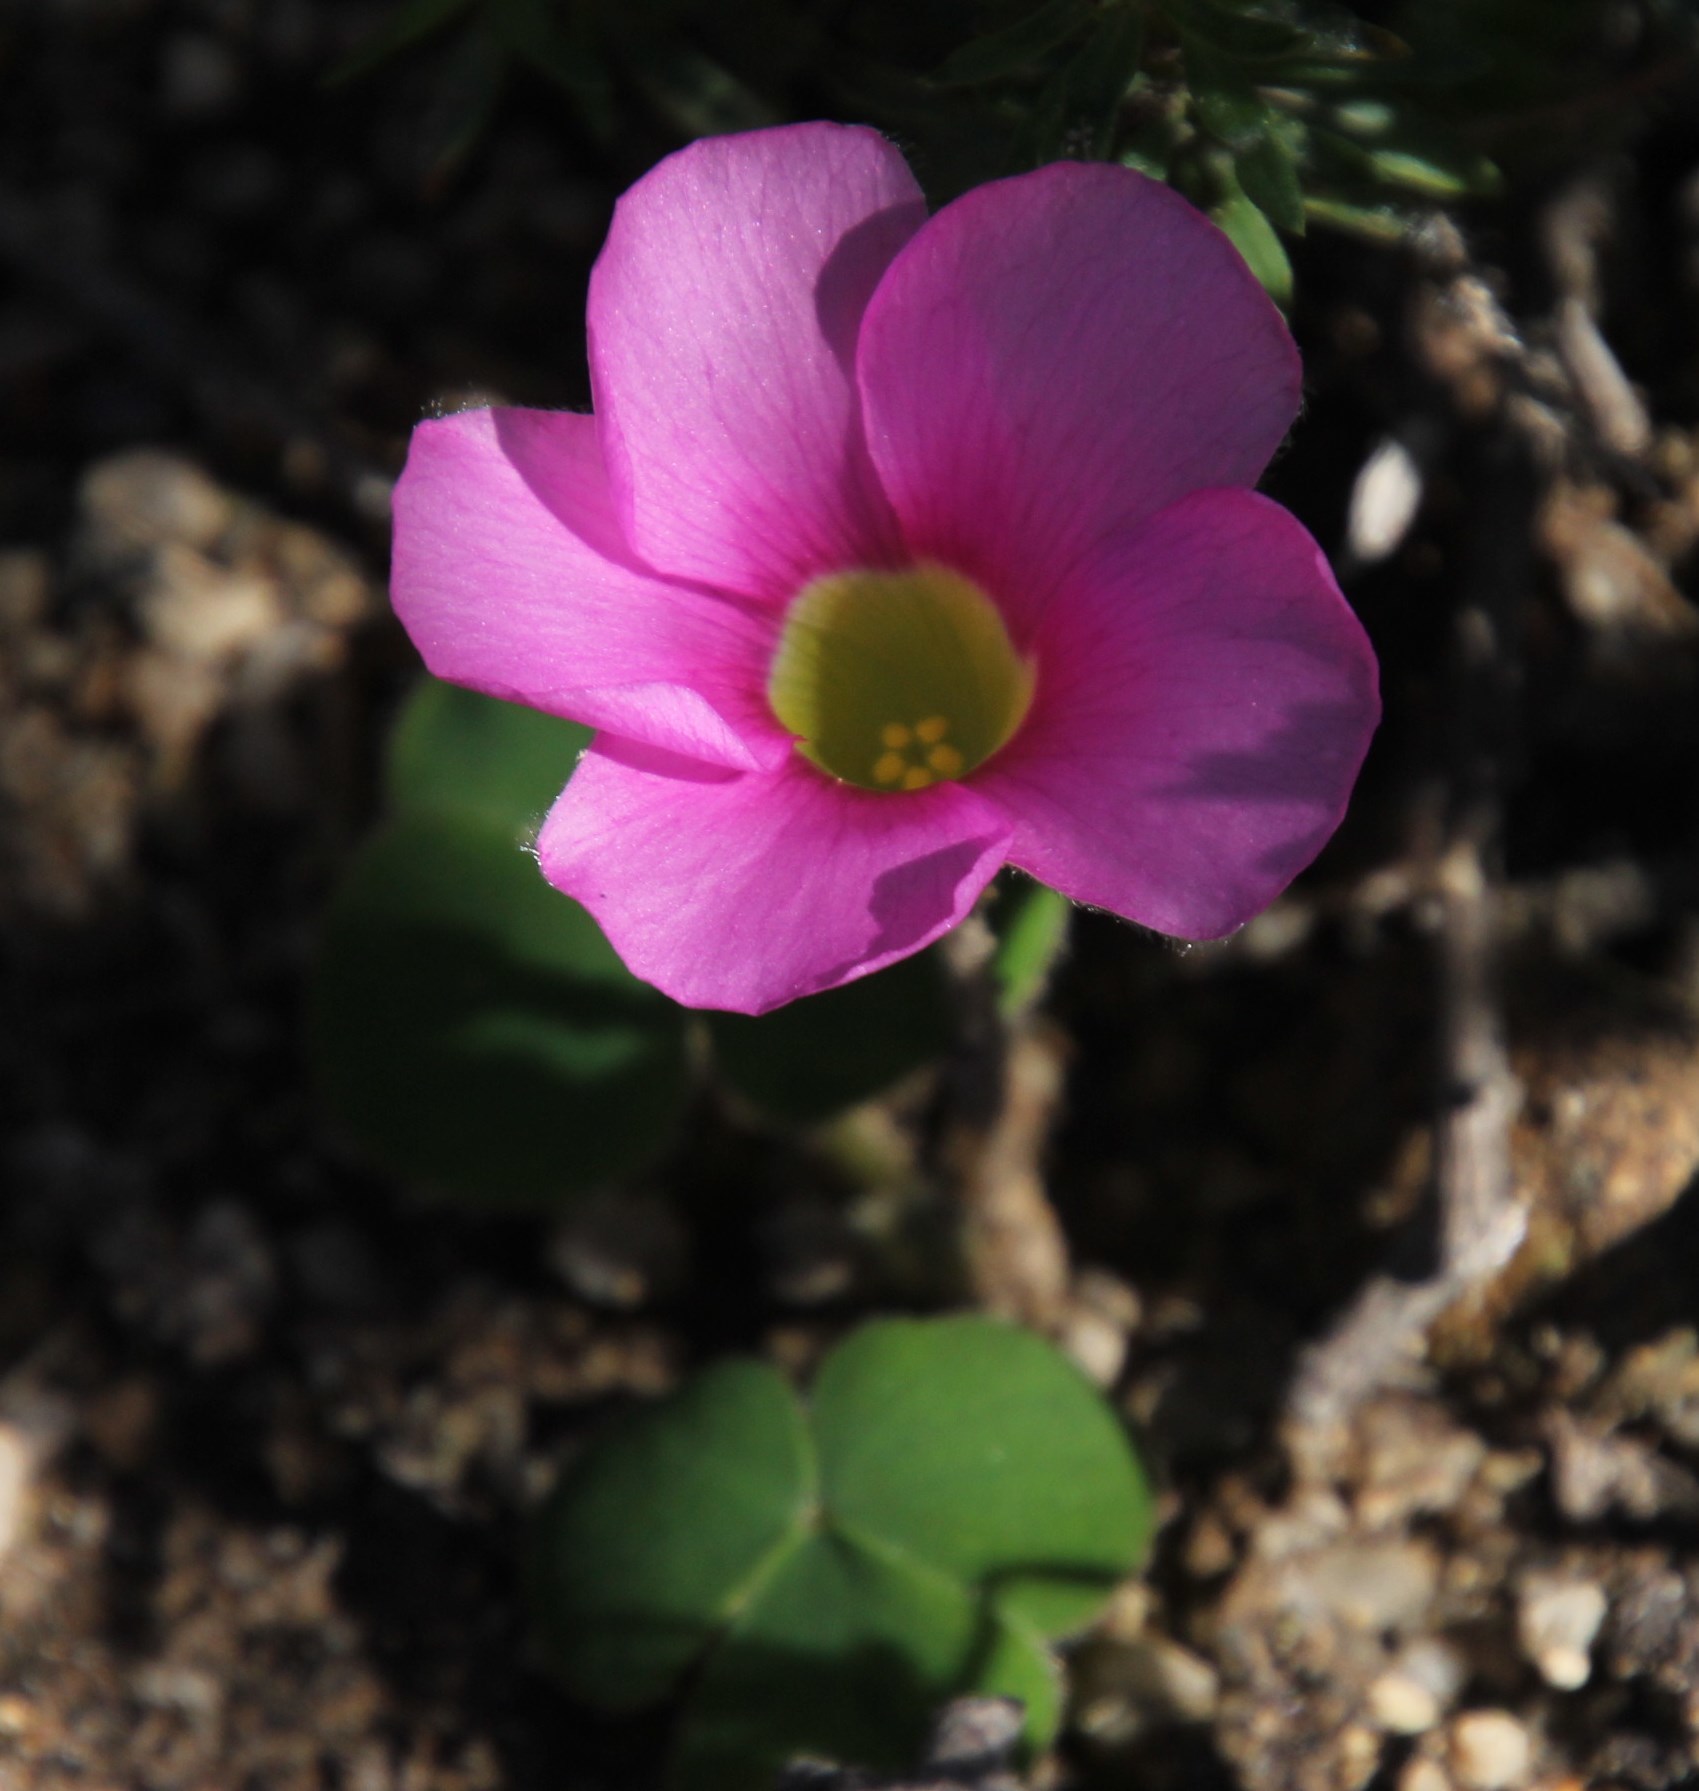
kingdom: Plantae
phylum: Tracheophyta
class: Magnoliopsida
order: Oxalidales
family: Oxalidaceae
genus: Oxalis
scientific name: Oxalis purpurea
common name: Purple woodsorrel
